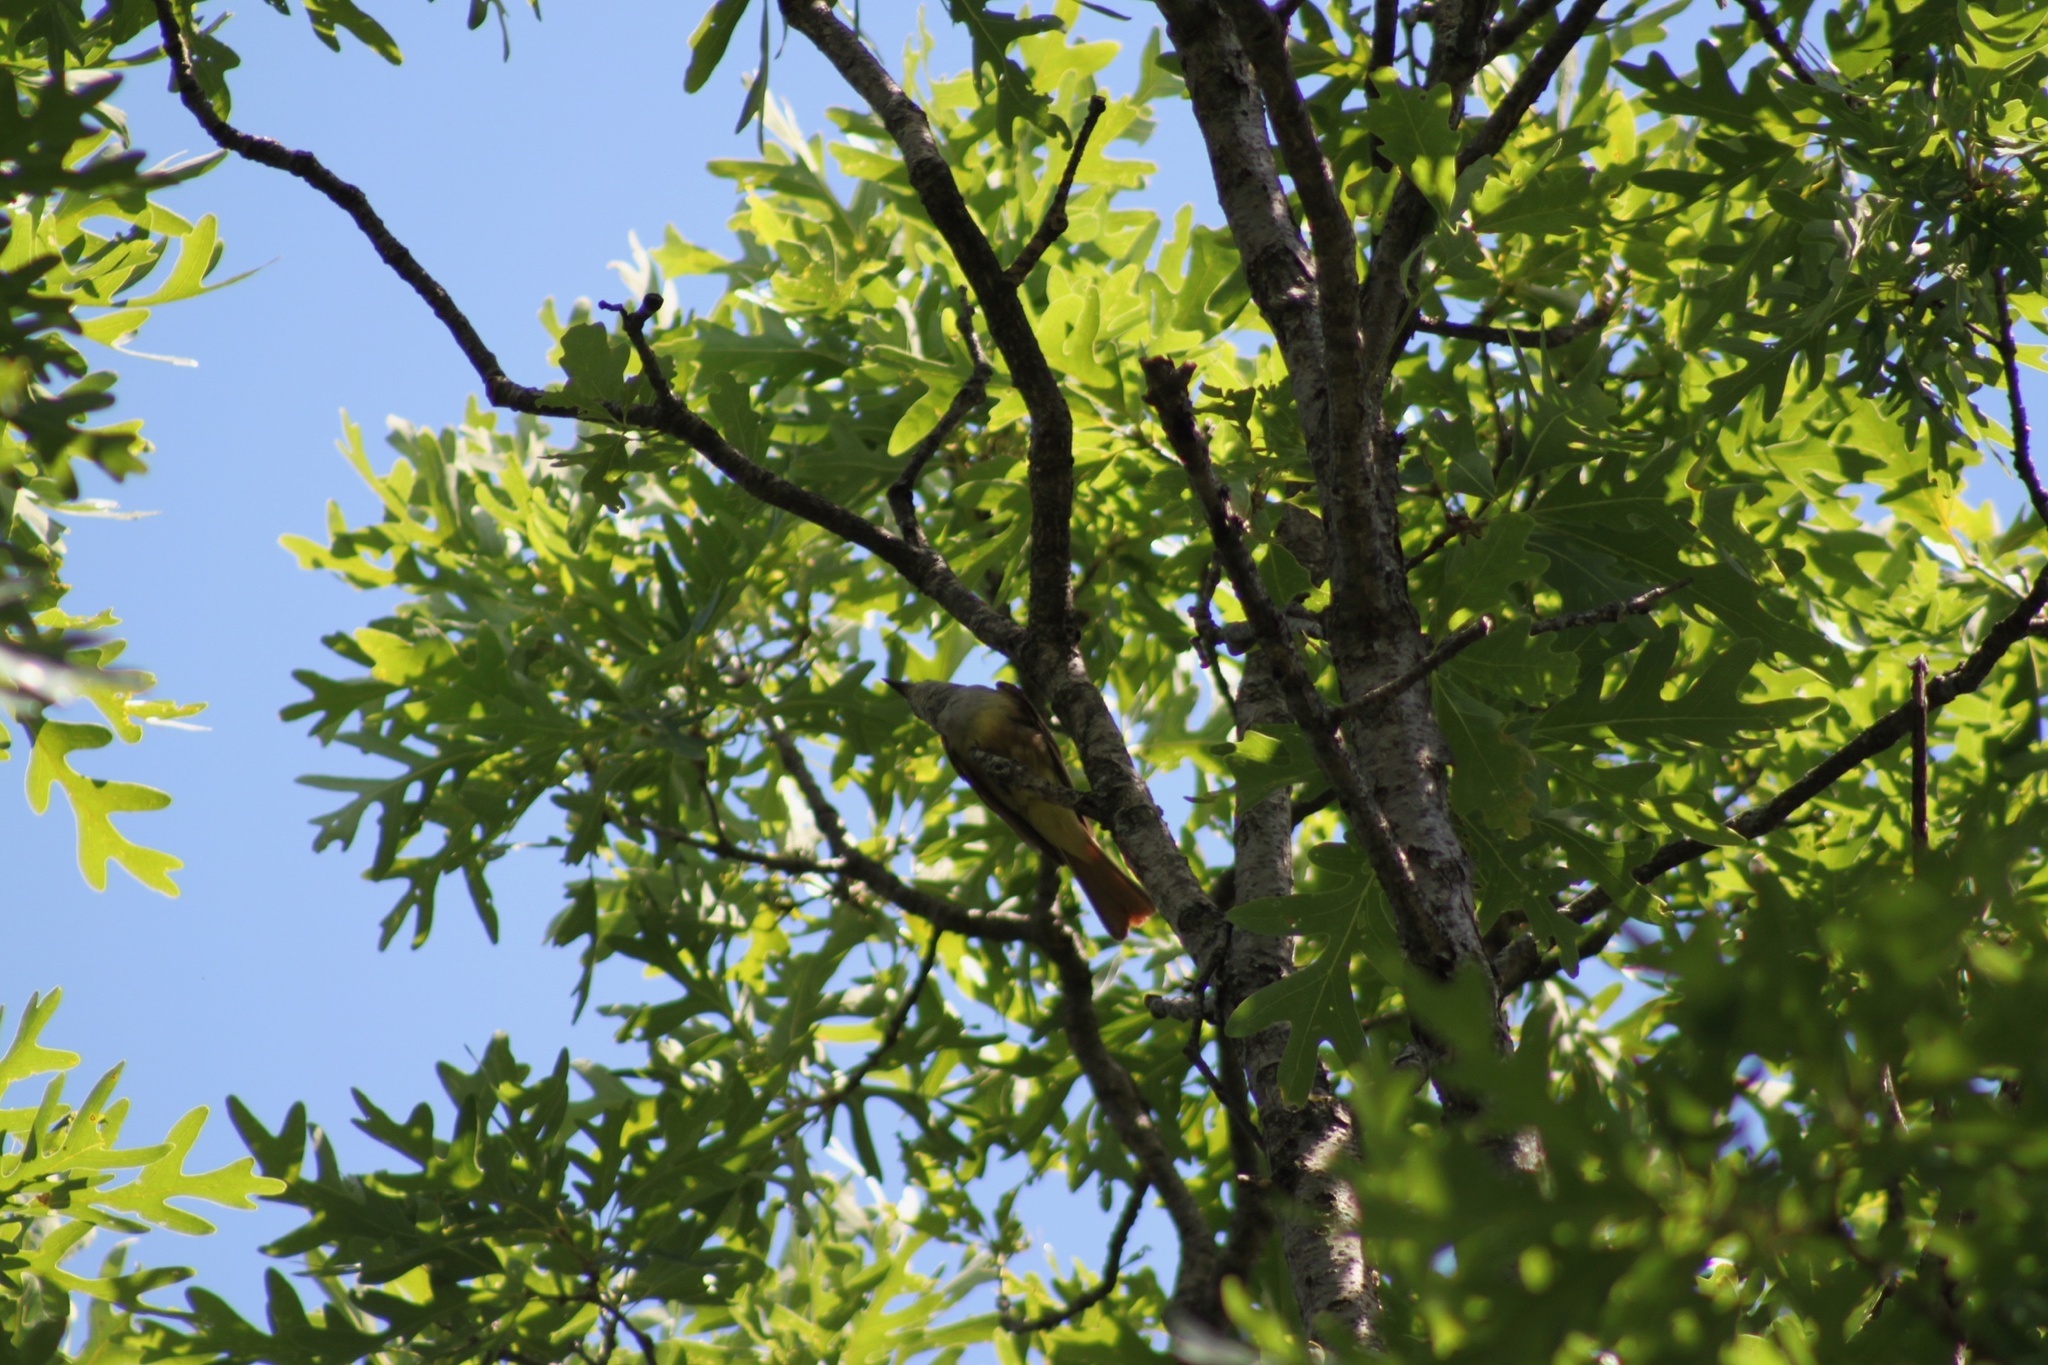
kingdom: Animalia
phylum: Chordata
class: Aves
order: Passeriformes
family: Tyrannidae
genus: Myiarchus
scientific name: Myiarchus crinitus
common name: Great crested flycatcher
